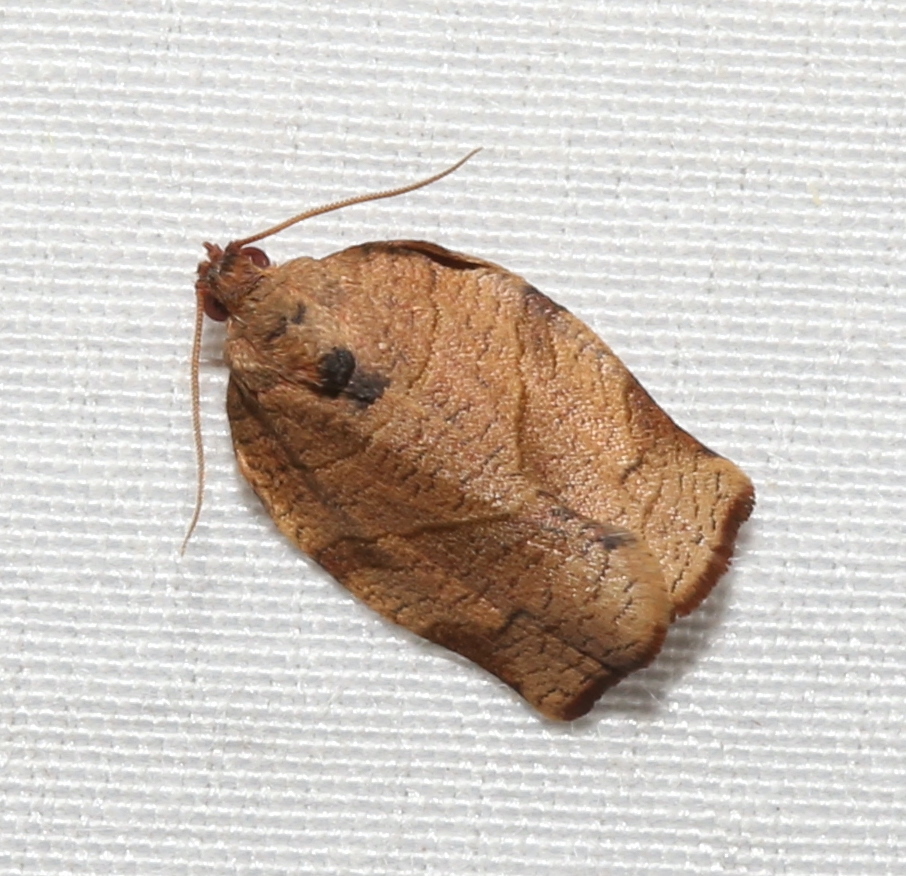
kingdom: Animalia
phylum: Arthropoda
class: Insecta
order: Lepidoptera
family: Tortricidae
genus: Choristoneura
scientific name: Choristoneura rosaceana
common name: Oblique-banded leafroller moth
